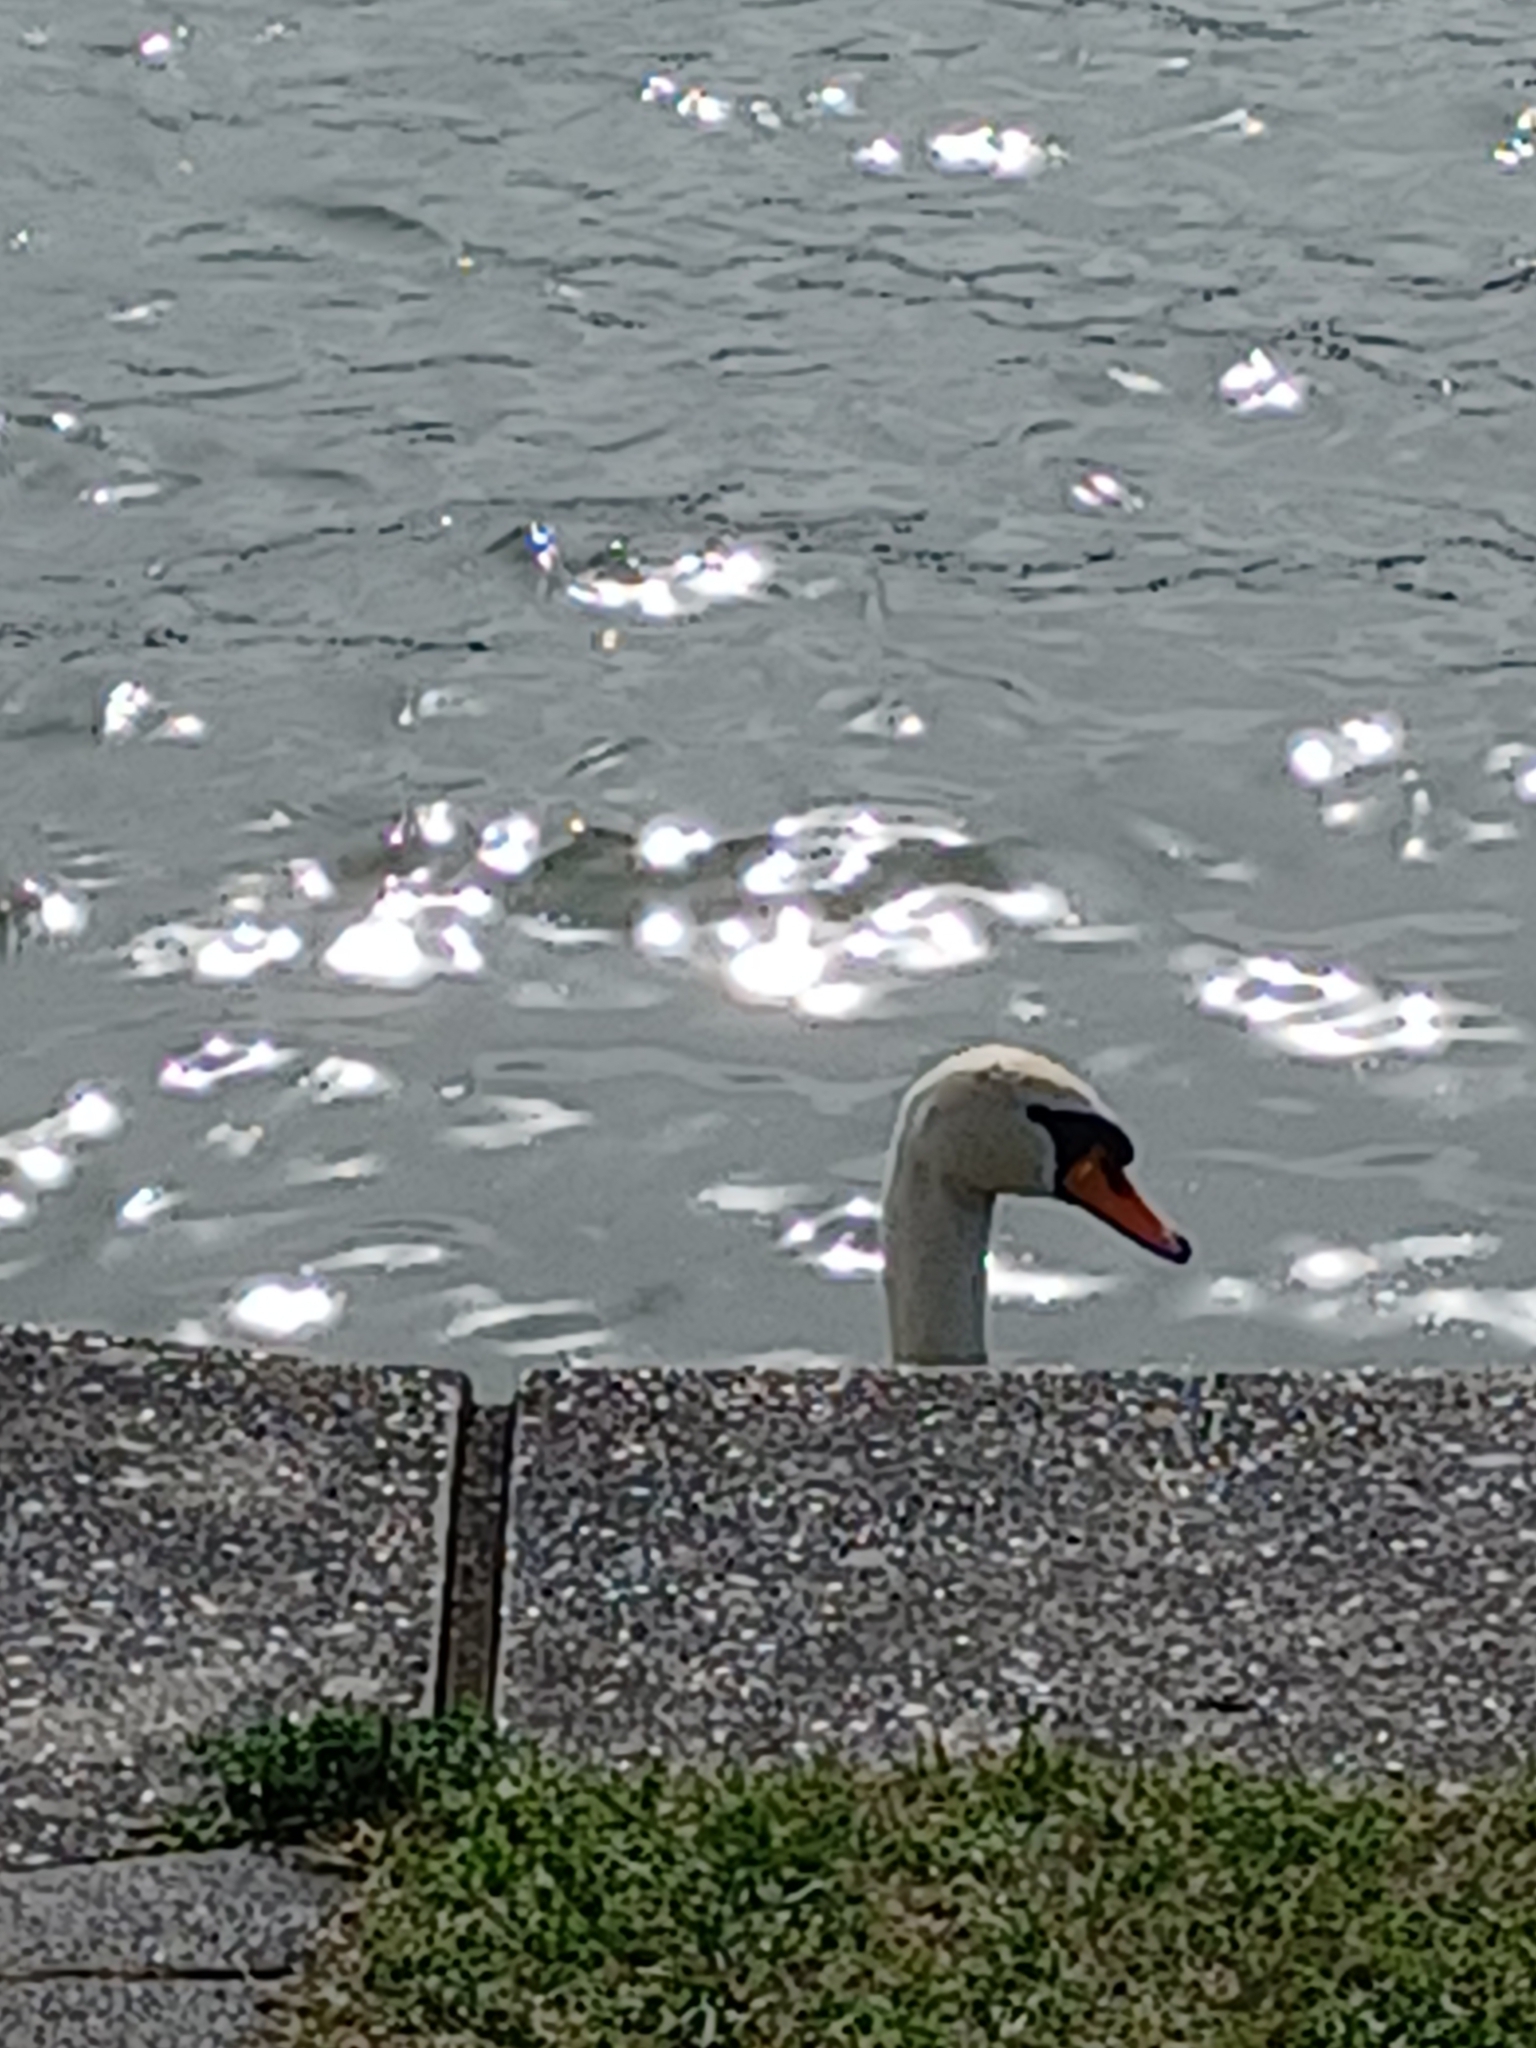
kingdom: Animalia
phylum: Chordata
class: Aves
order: Anseriformes
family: Anatidae
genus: Cygnus
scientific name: Cygnus olor
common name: Mute swan
